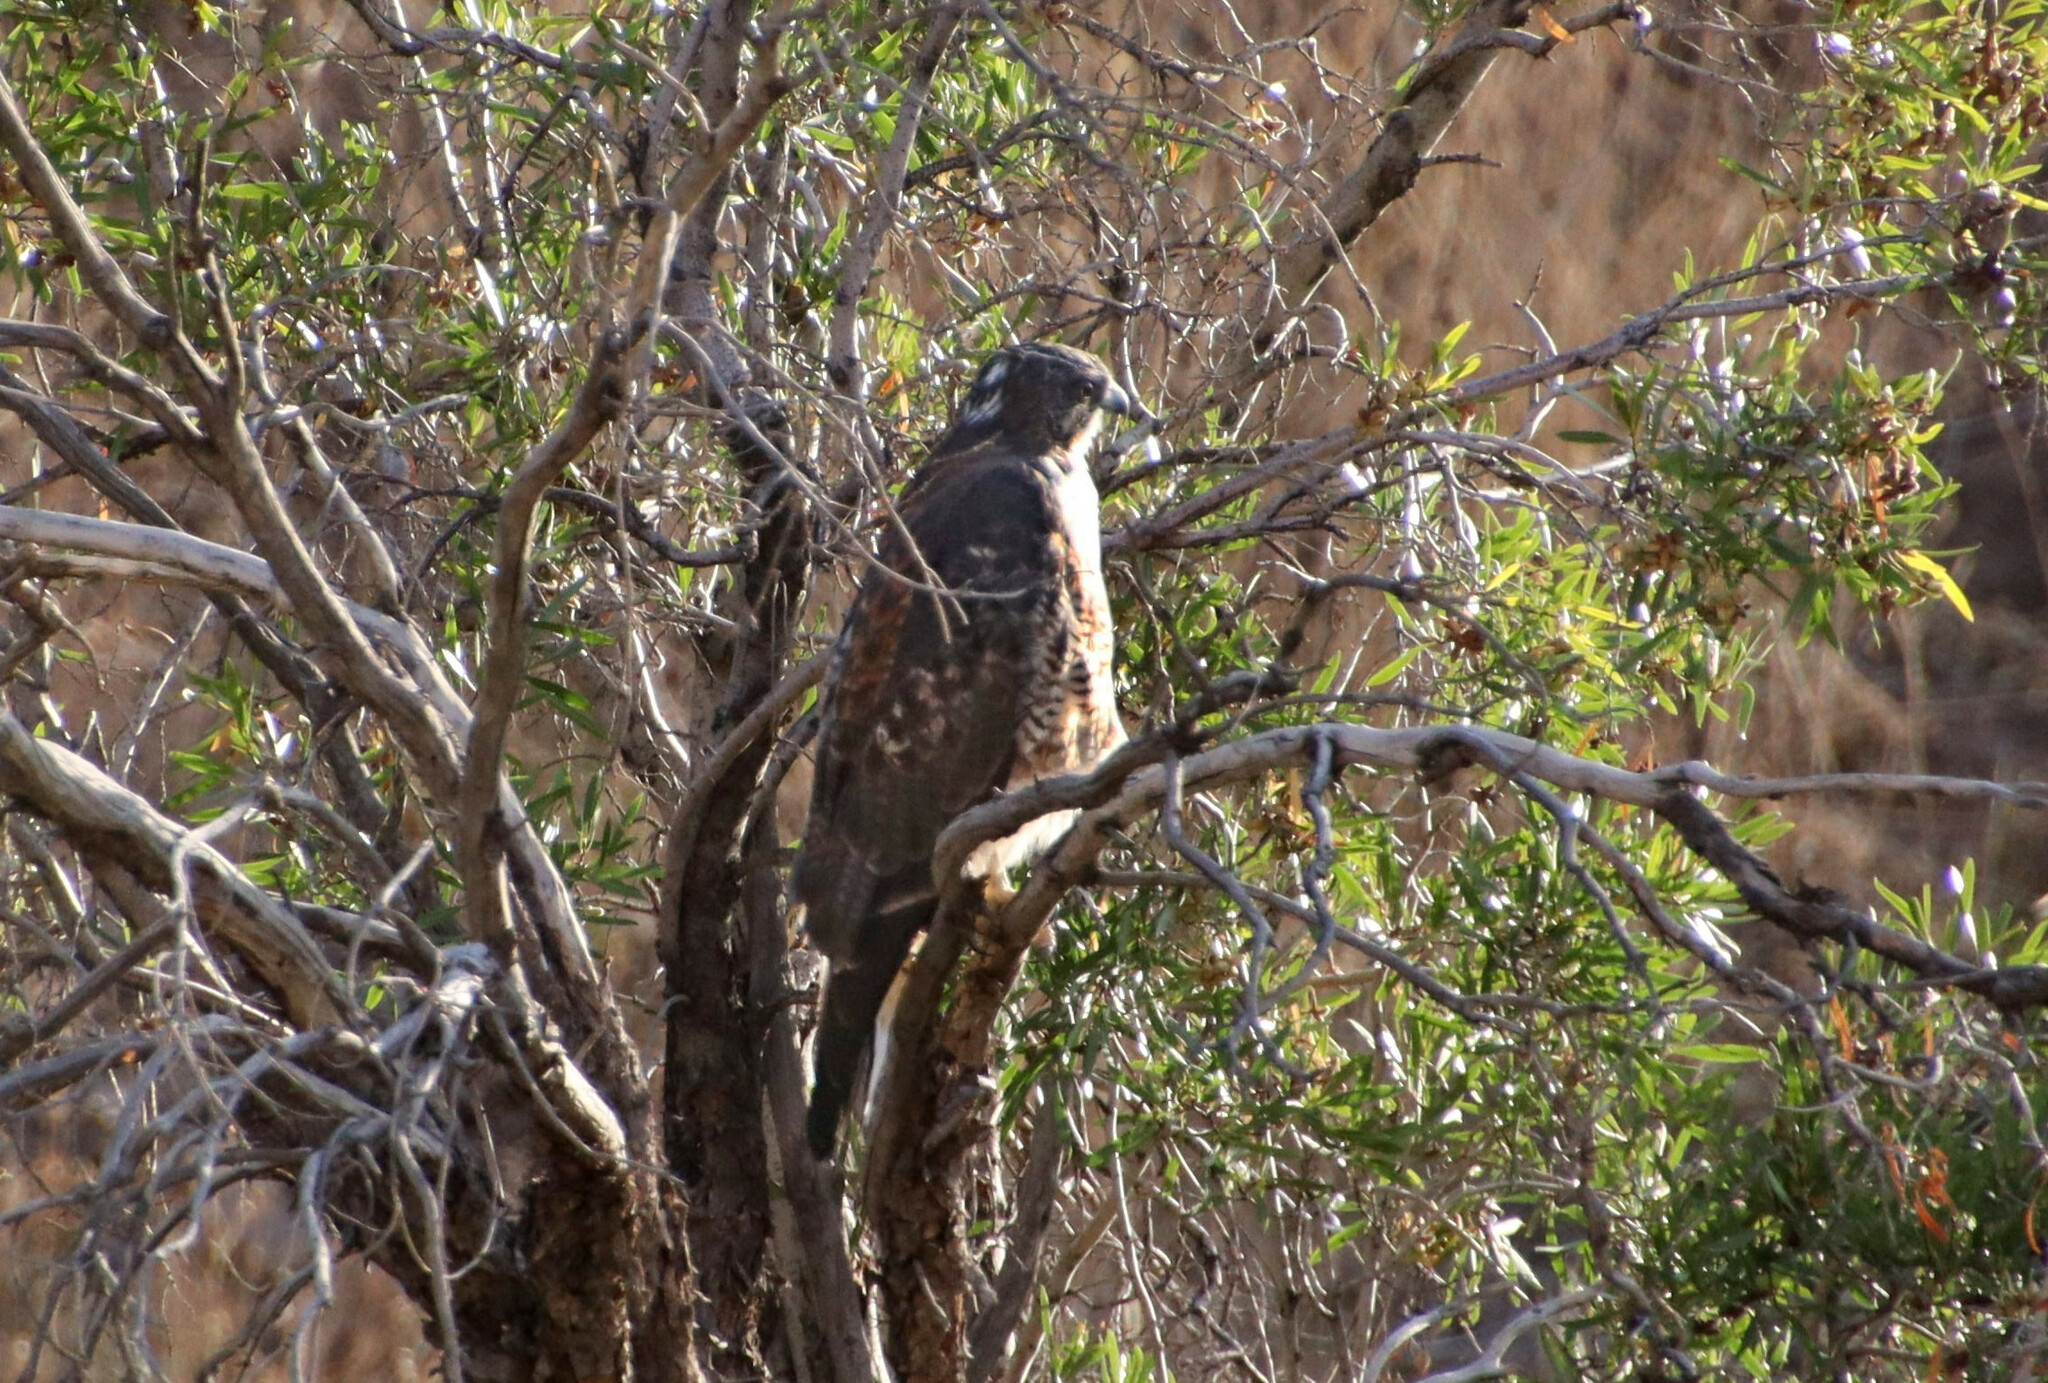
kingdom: Animalia
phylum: Chordata
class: Aves
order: Accipitriformes
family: Accipitridae
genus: Buteo
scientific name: Buteo polyosoma
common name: Variable hawk
